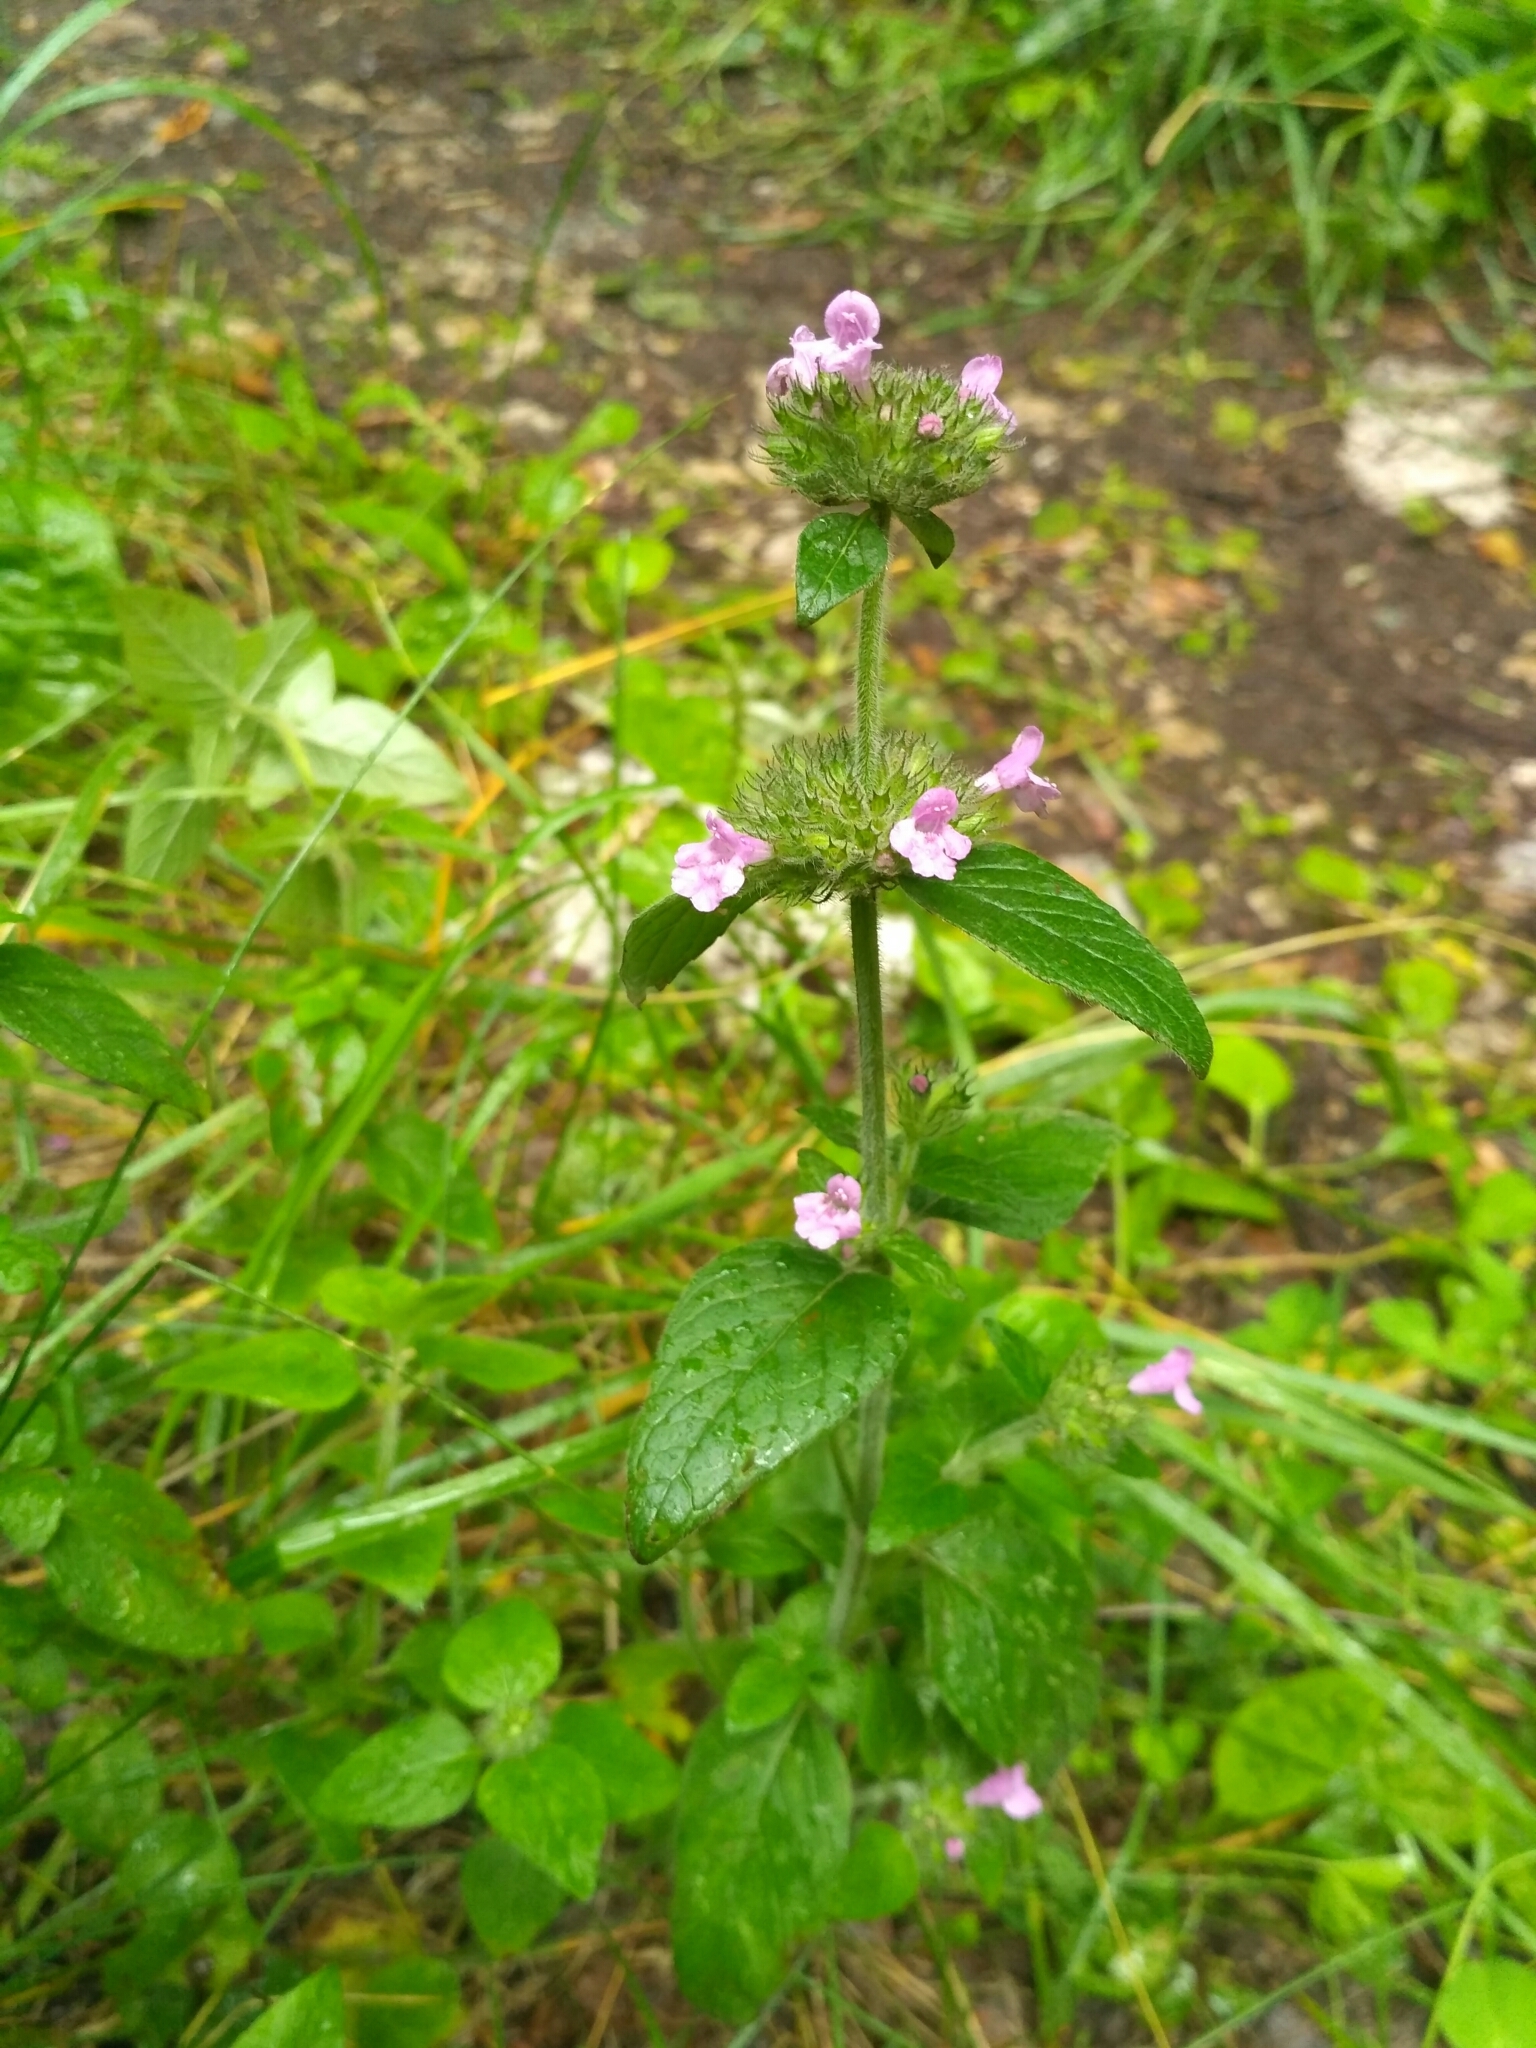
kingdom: Plantae
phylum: Tracheophyta
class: Magnoliopsida
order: Lamiales
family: Lamiaceae
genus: Clinopodium
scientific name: Clinopodium vulgare
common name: Wild basil
